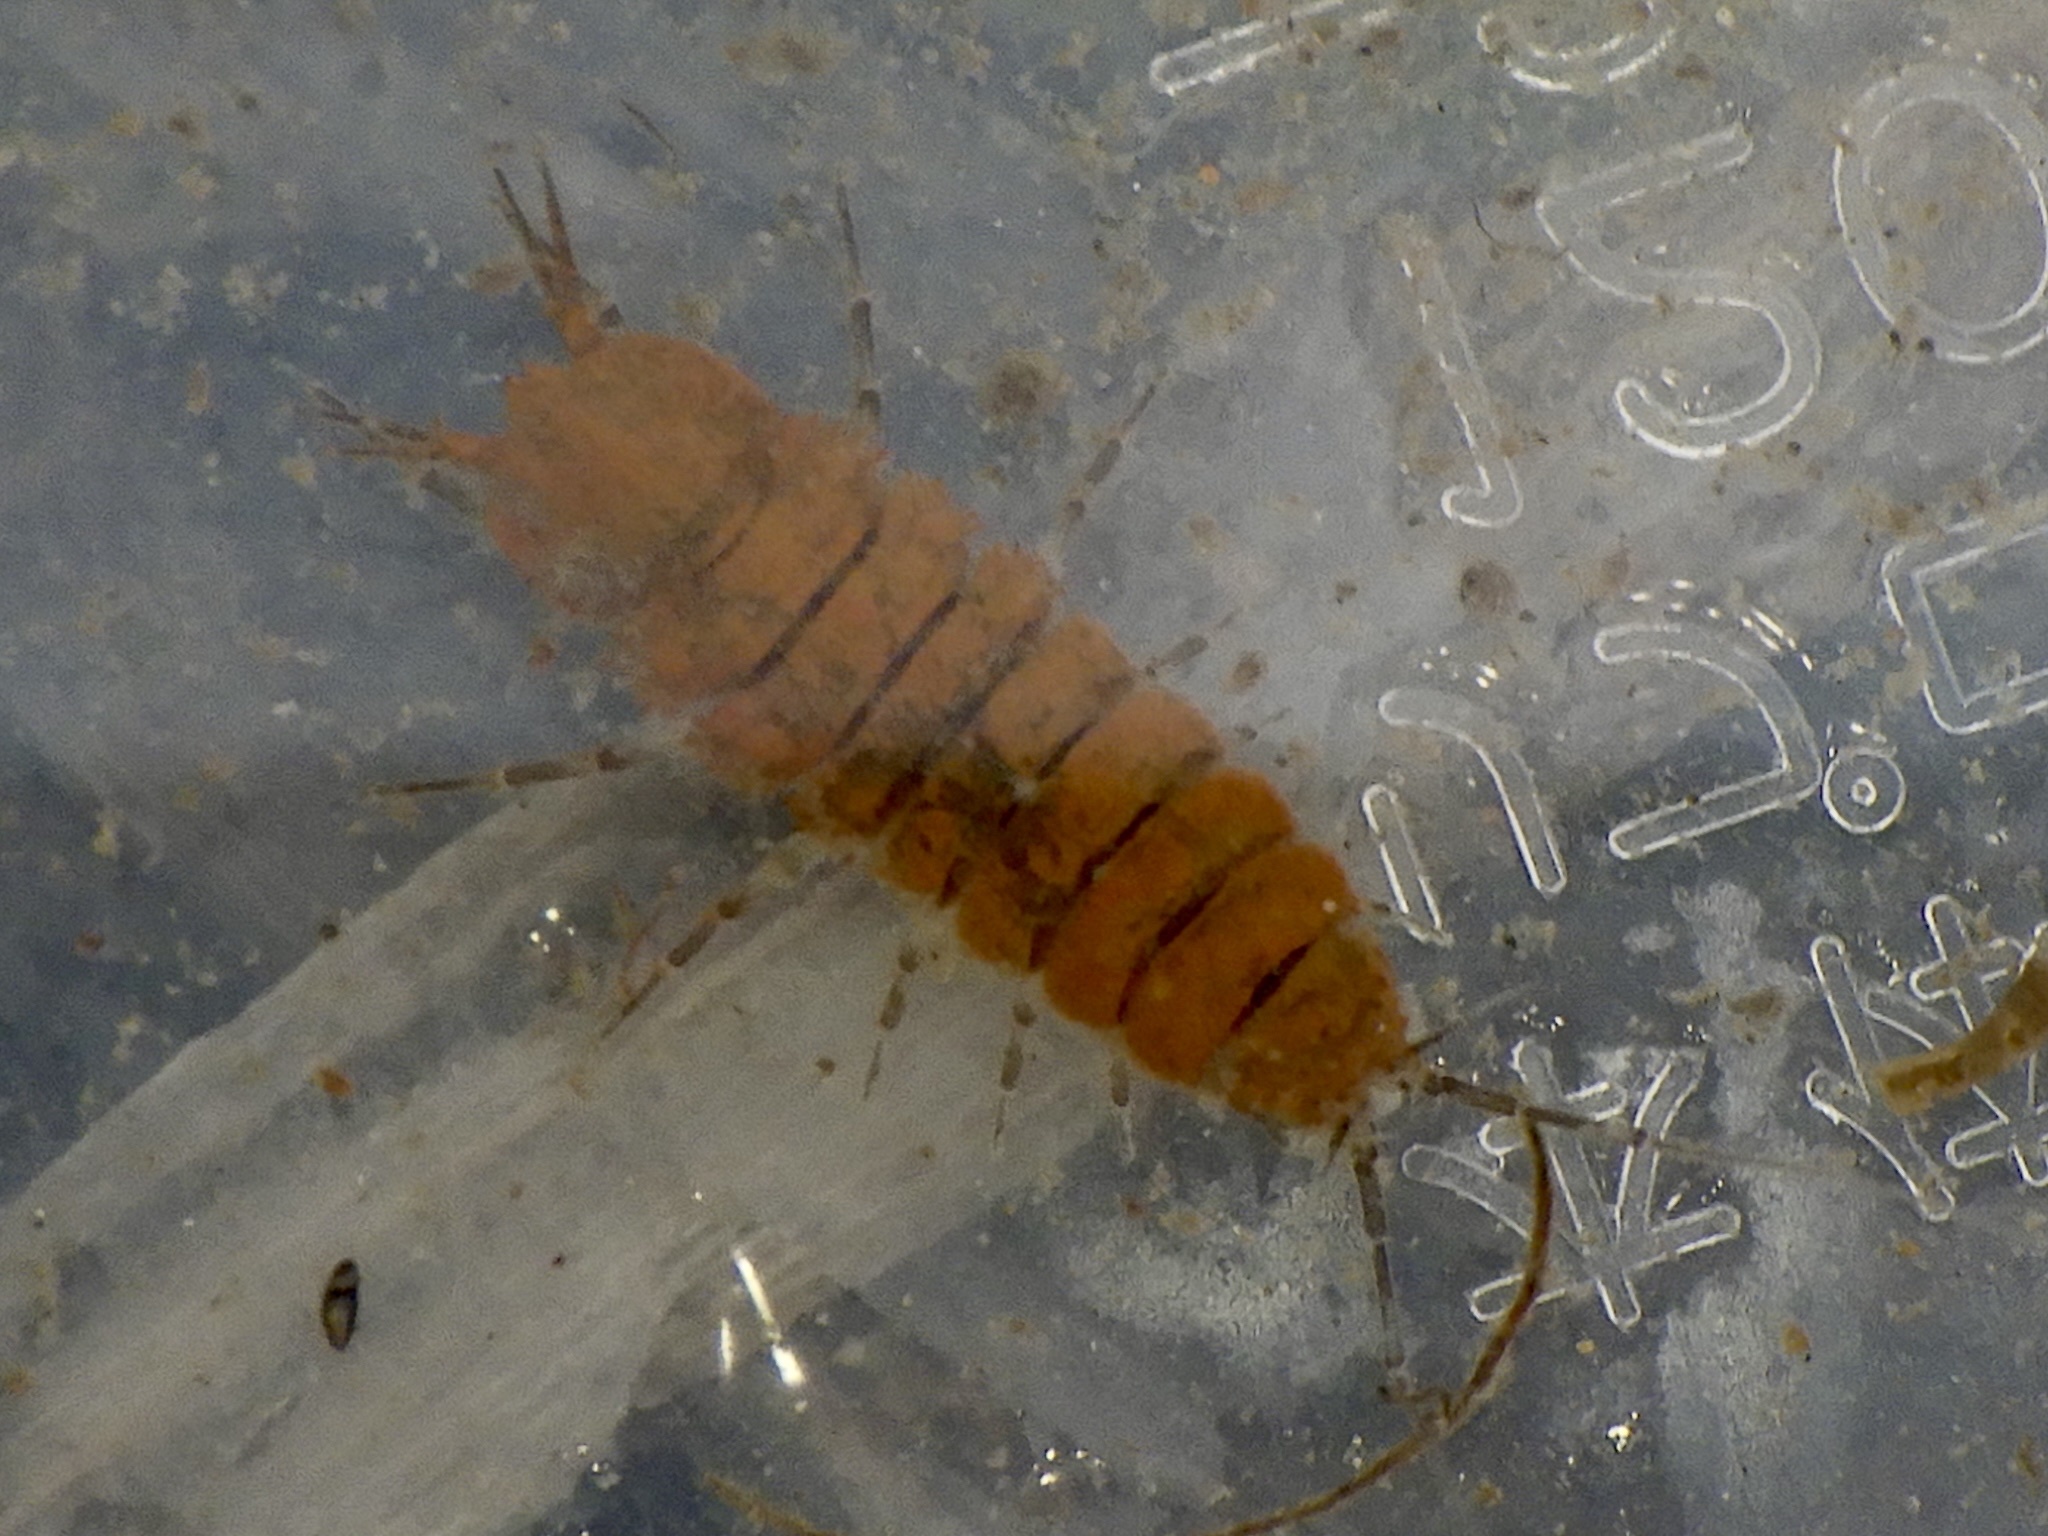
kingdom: Animalia
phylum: Arthropoda
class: Malacostraca
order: Isopoda
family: Asellidae
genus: Asellus
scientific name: Asellus hilgendorfii
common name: Isopod
